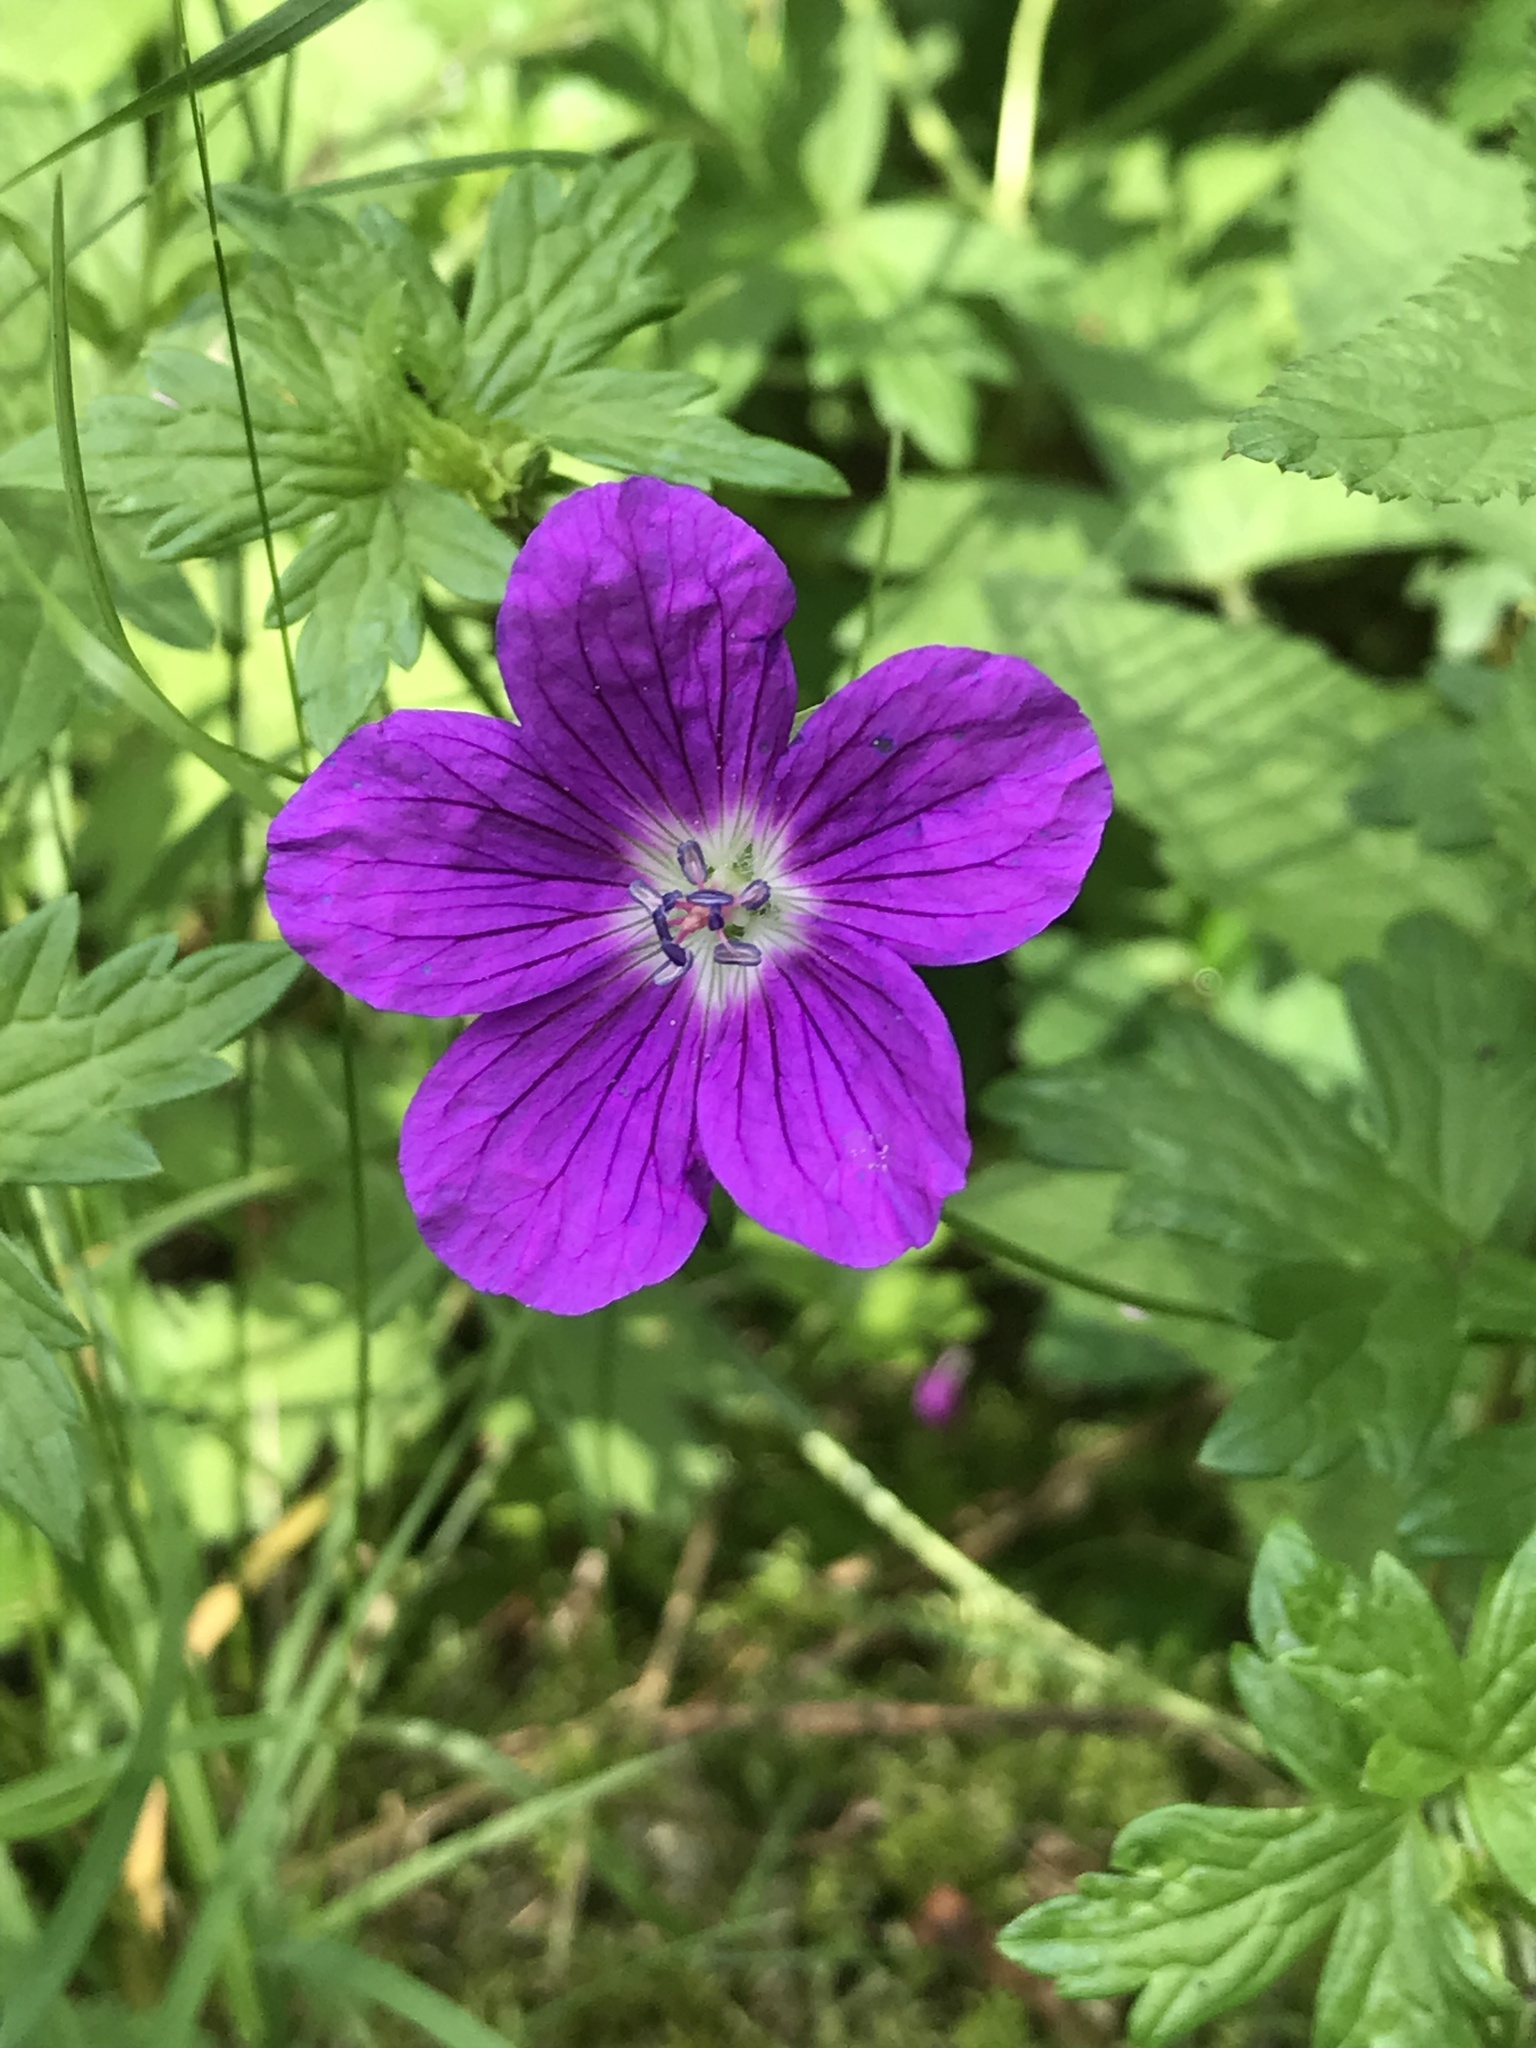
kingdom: Plantae
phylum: Tracheophyta
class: Magnoliopsida
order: Geraniales
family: Geraniaceae
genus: Geranium
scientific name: Geranium palustre
